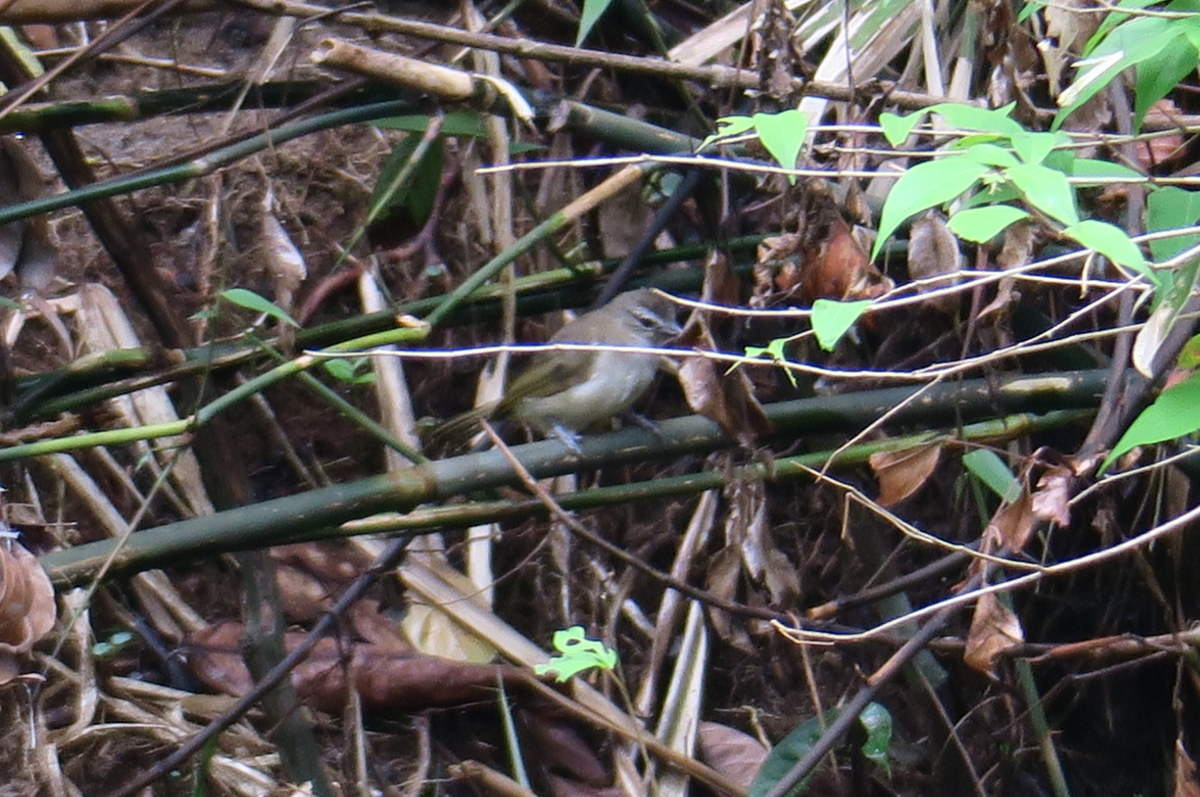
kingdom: Animalia
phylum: Chordata
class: Aves
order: Passeriformes
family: Pycnonotidae
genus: Pycnonotus
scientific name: Pycnonotus luteolus
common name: White-browed bulbul
